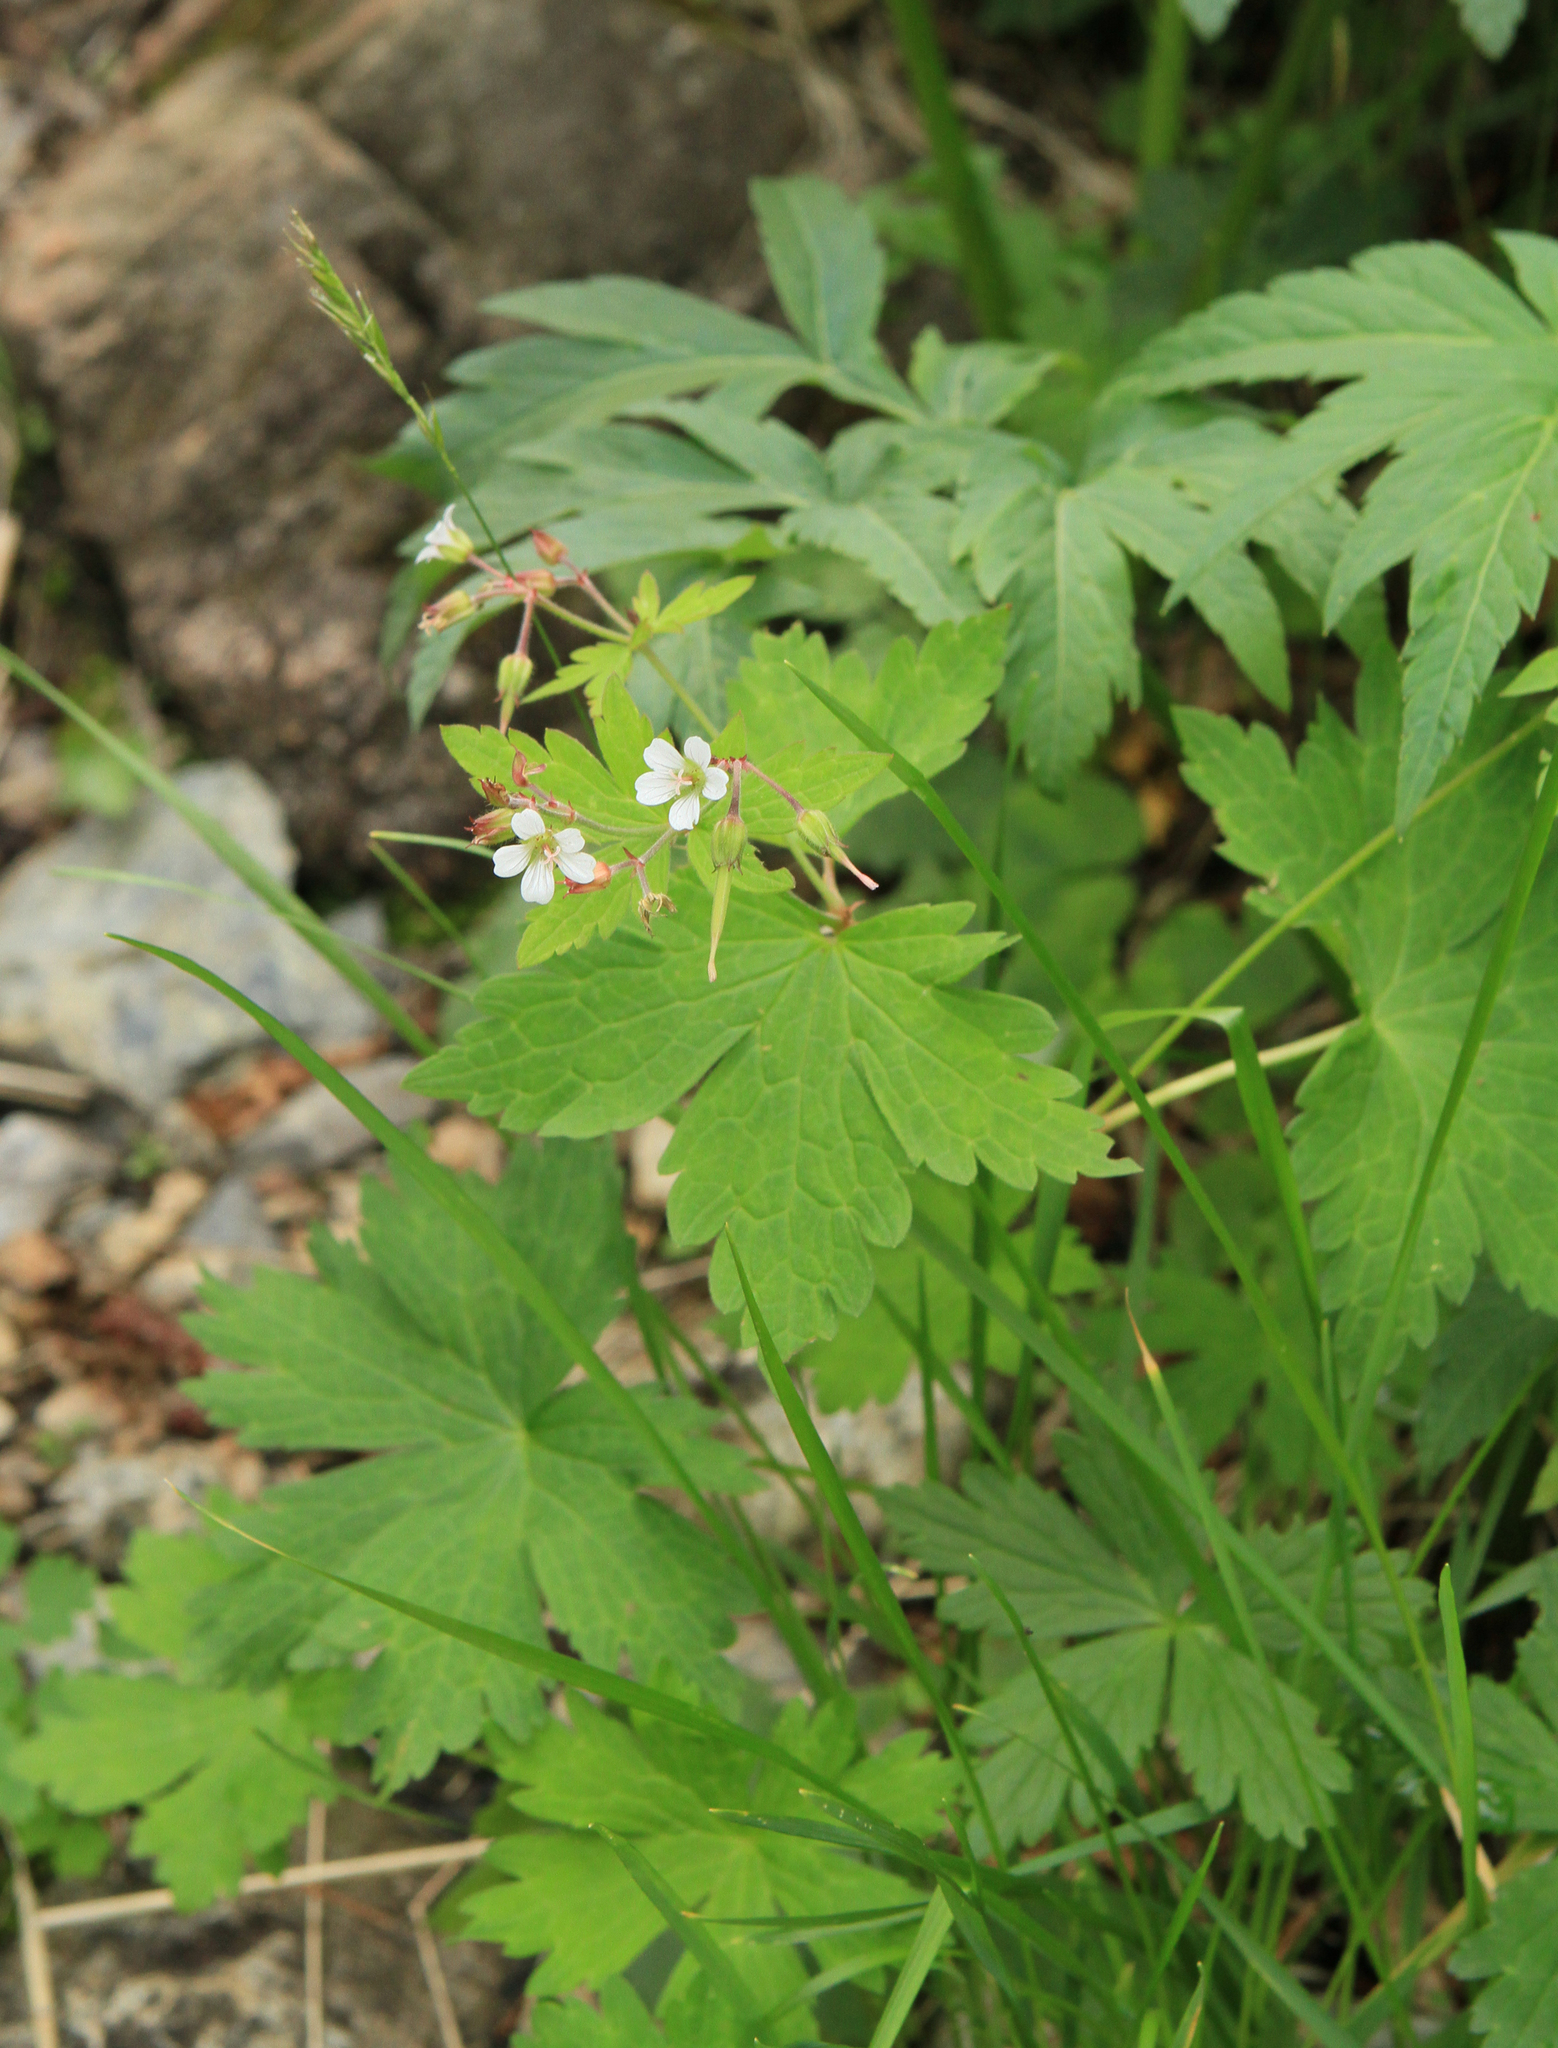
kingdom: Plantae
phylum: Tracheophyta
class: Magnoliopsida
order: Geraniales
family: Geraniaceae
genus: Geranium
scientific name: Geranium sylvaticum
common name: Wood crane's-bill
